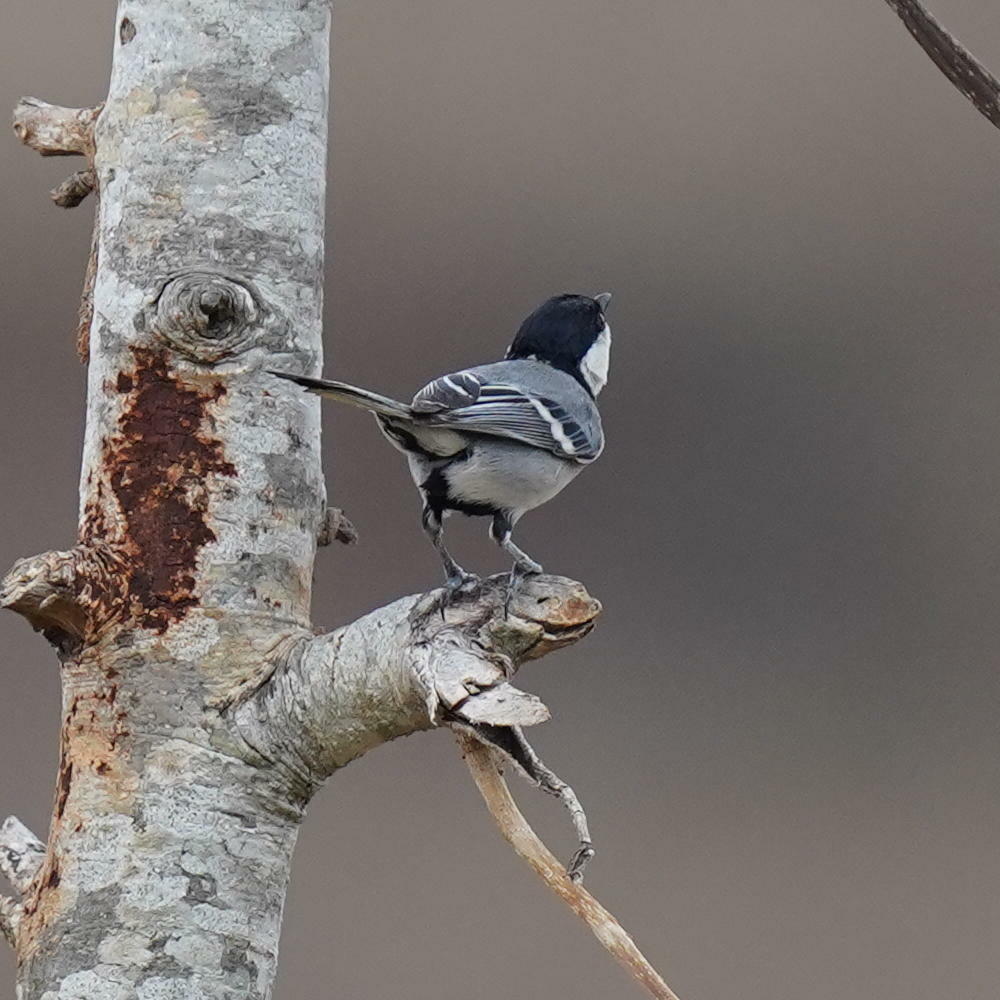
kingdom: Animalia
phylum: Chordata
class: Aves
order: Passeriformes
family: Paridae
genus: Parus
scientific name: Parus cinereus
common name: Cinereous tit
